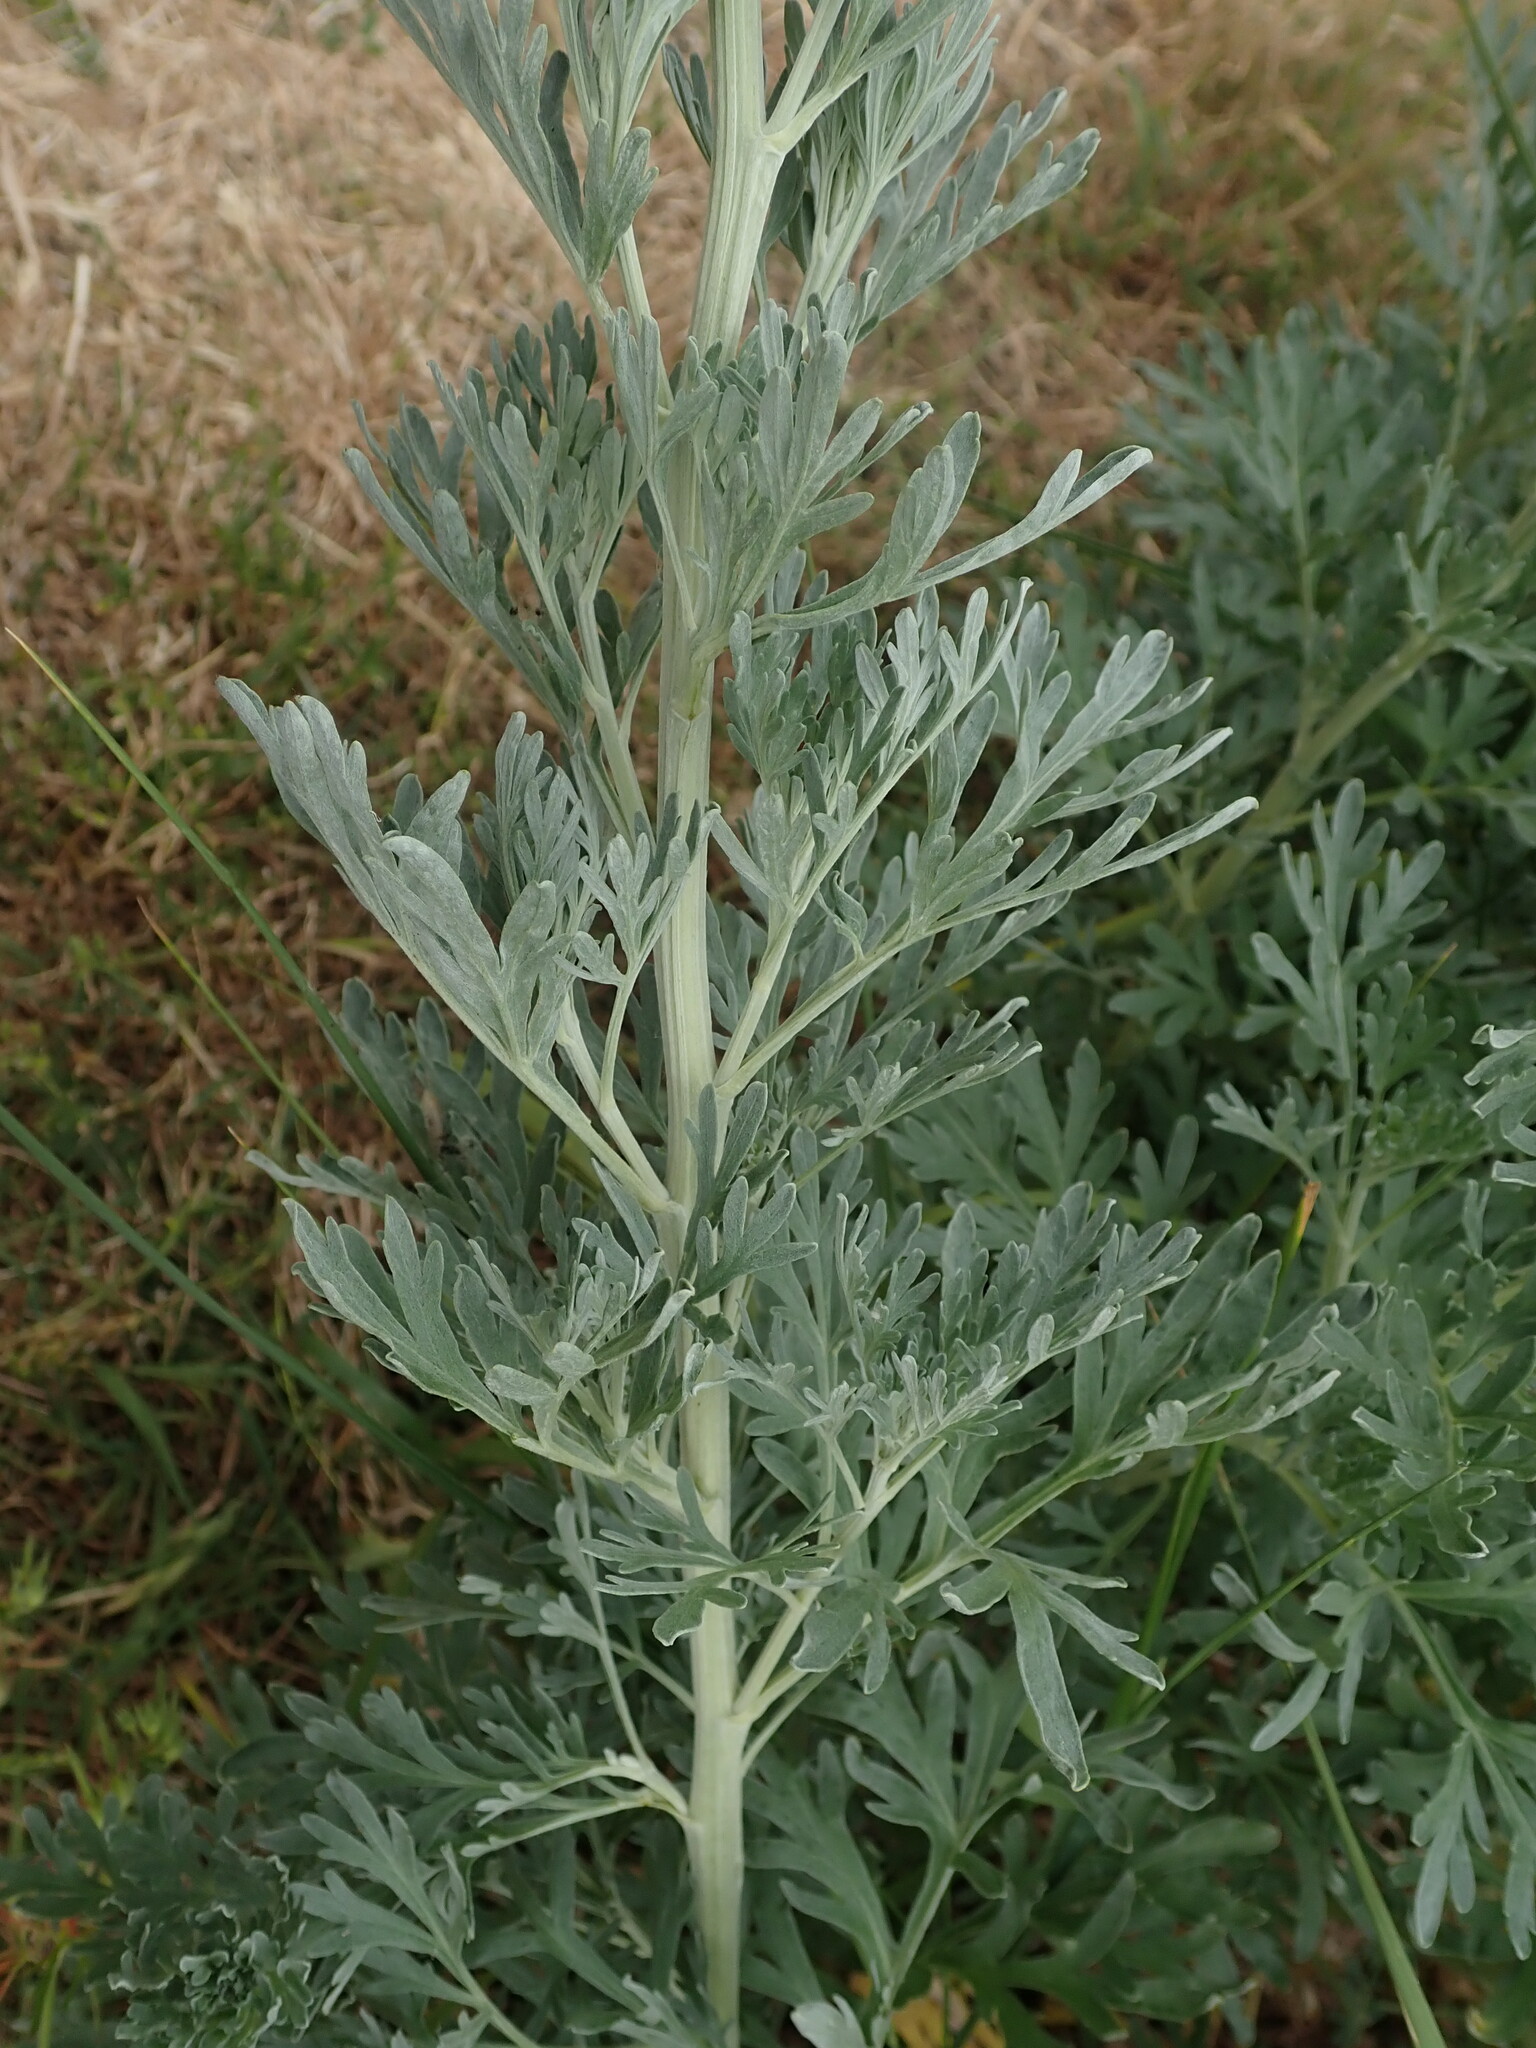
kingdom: Plantae
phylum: Tracheophyta
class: Magnoliopsida
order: Asterales
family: Asteraceae
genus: Artemisia
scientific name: Artemisia absinthium
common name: Wormwood
